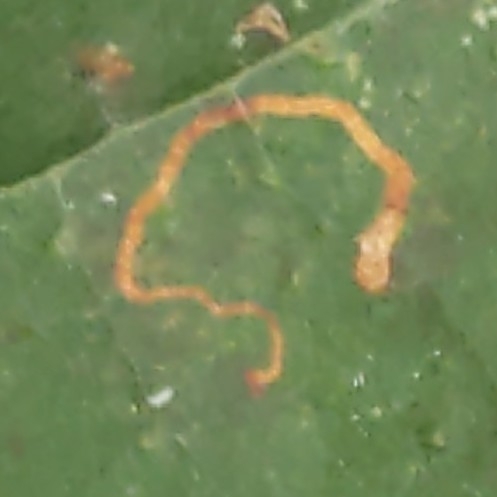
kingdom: Animalia
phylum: Arthropoda
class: Insecta
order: Lepidoptera
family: Nepticulidae
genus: Ectoedemia
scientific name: Ectoedemia platanella
